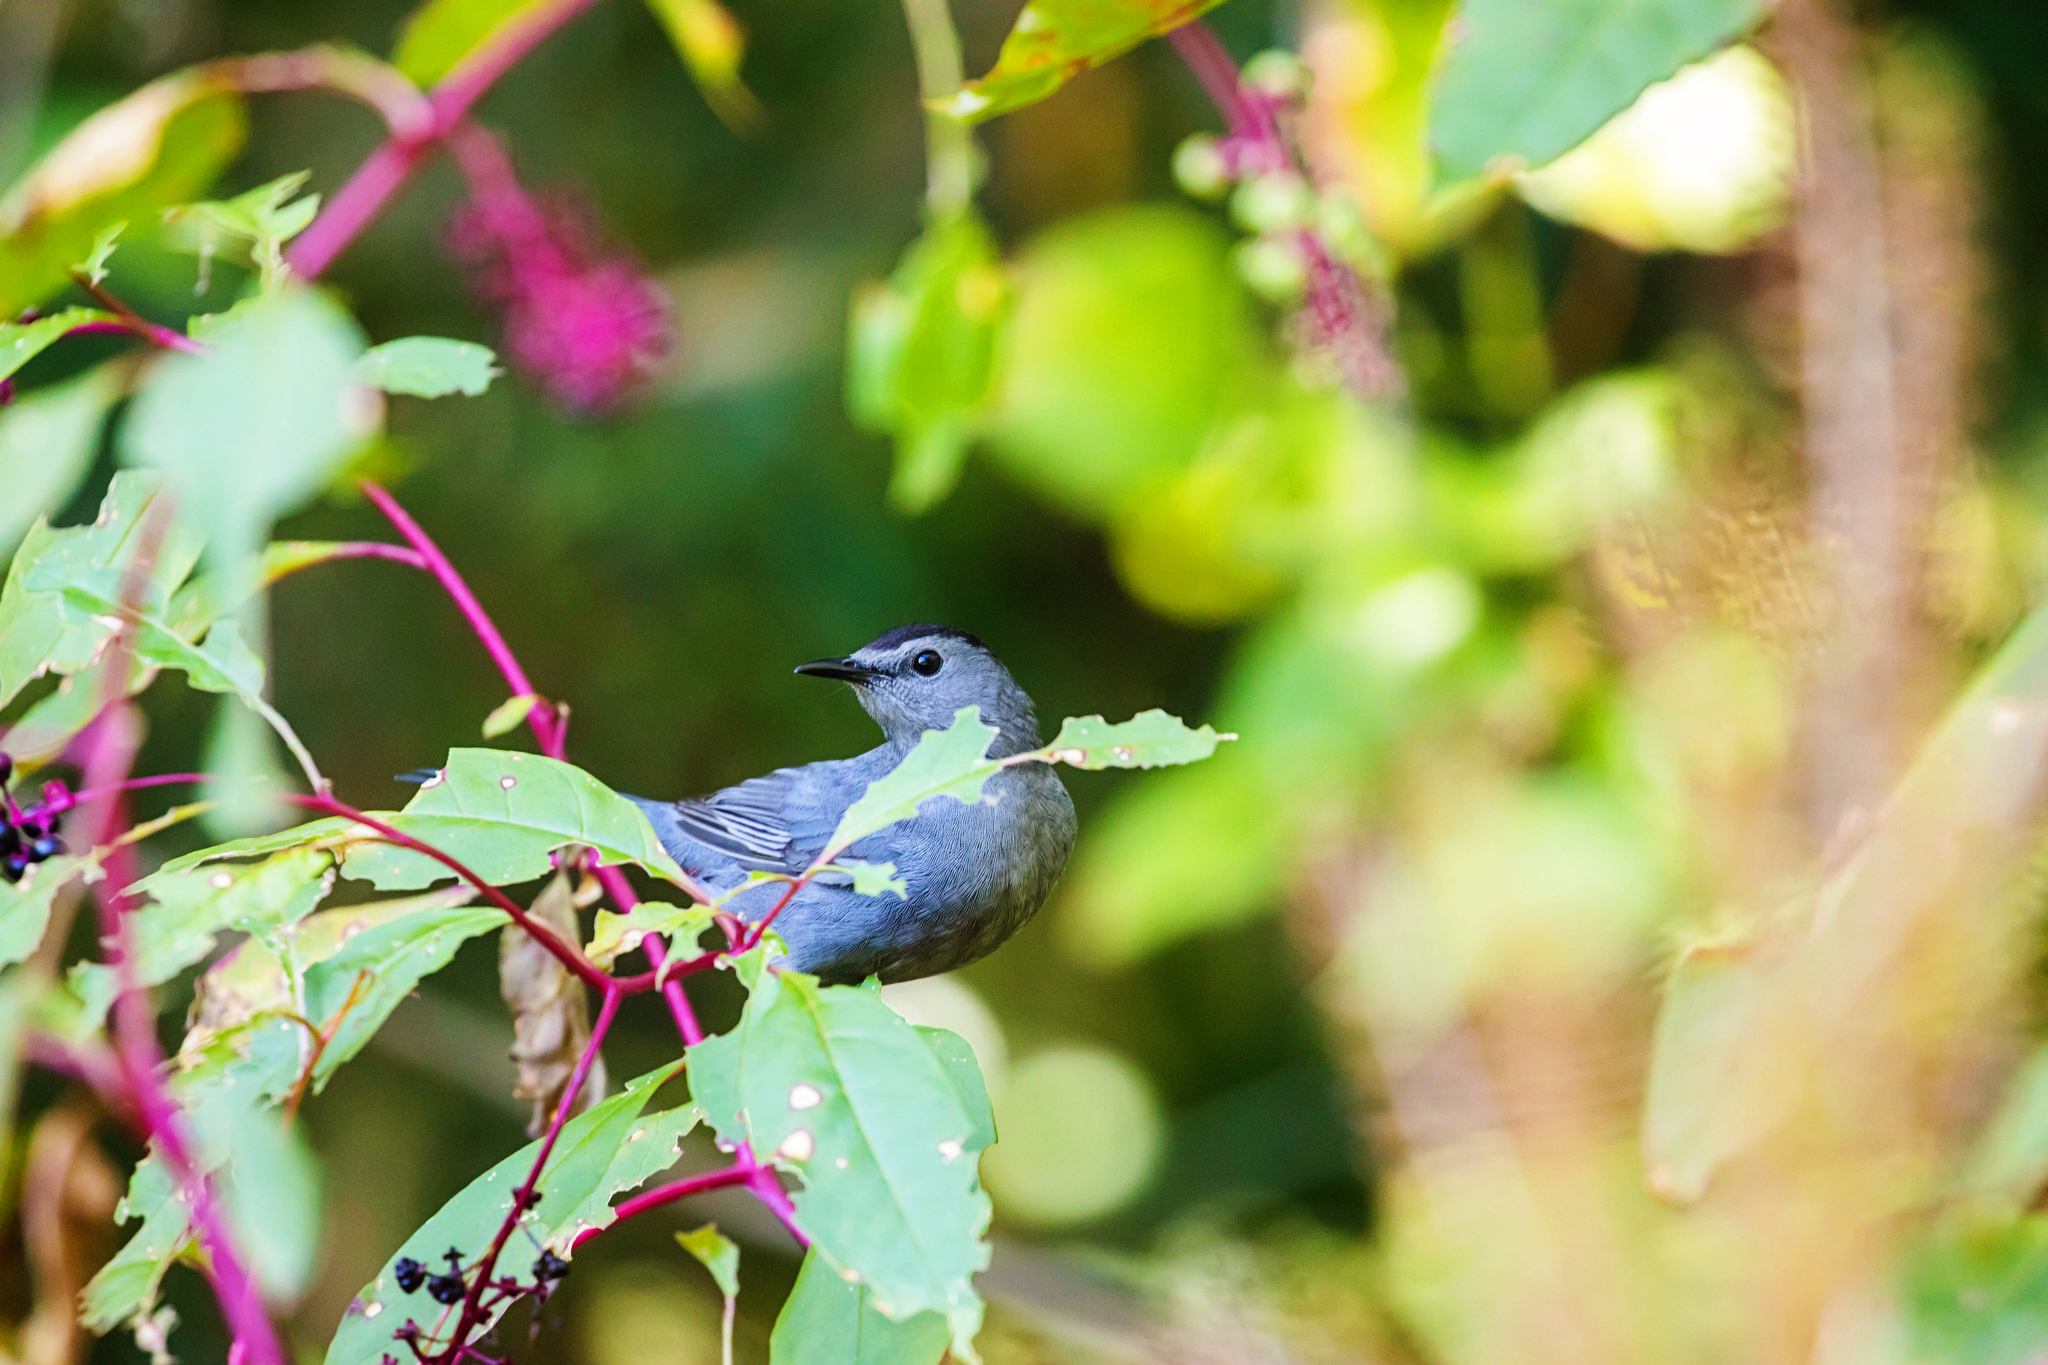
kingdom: Animalia
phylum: Chordata
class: Aves
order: Passeriformes
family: Mimidae
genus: Dumetella
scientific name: Dumetella carolinensis
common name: Gray catbird
